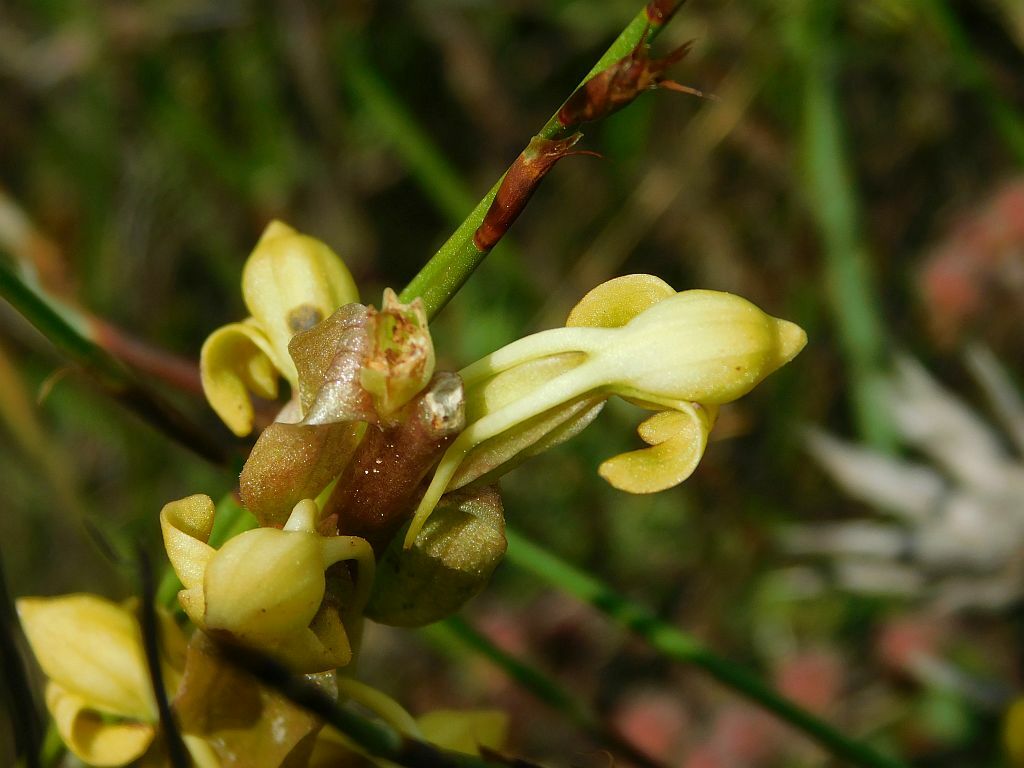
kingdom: Plantae
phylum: Tracheophyta
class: Liliopsida
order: Asparagales
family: Orchidaceae
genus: Satyrium
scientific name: Satyrium bicorne
